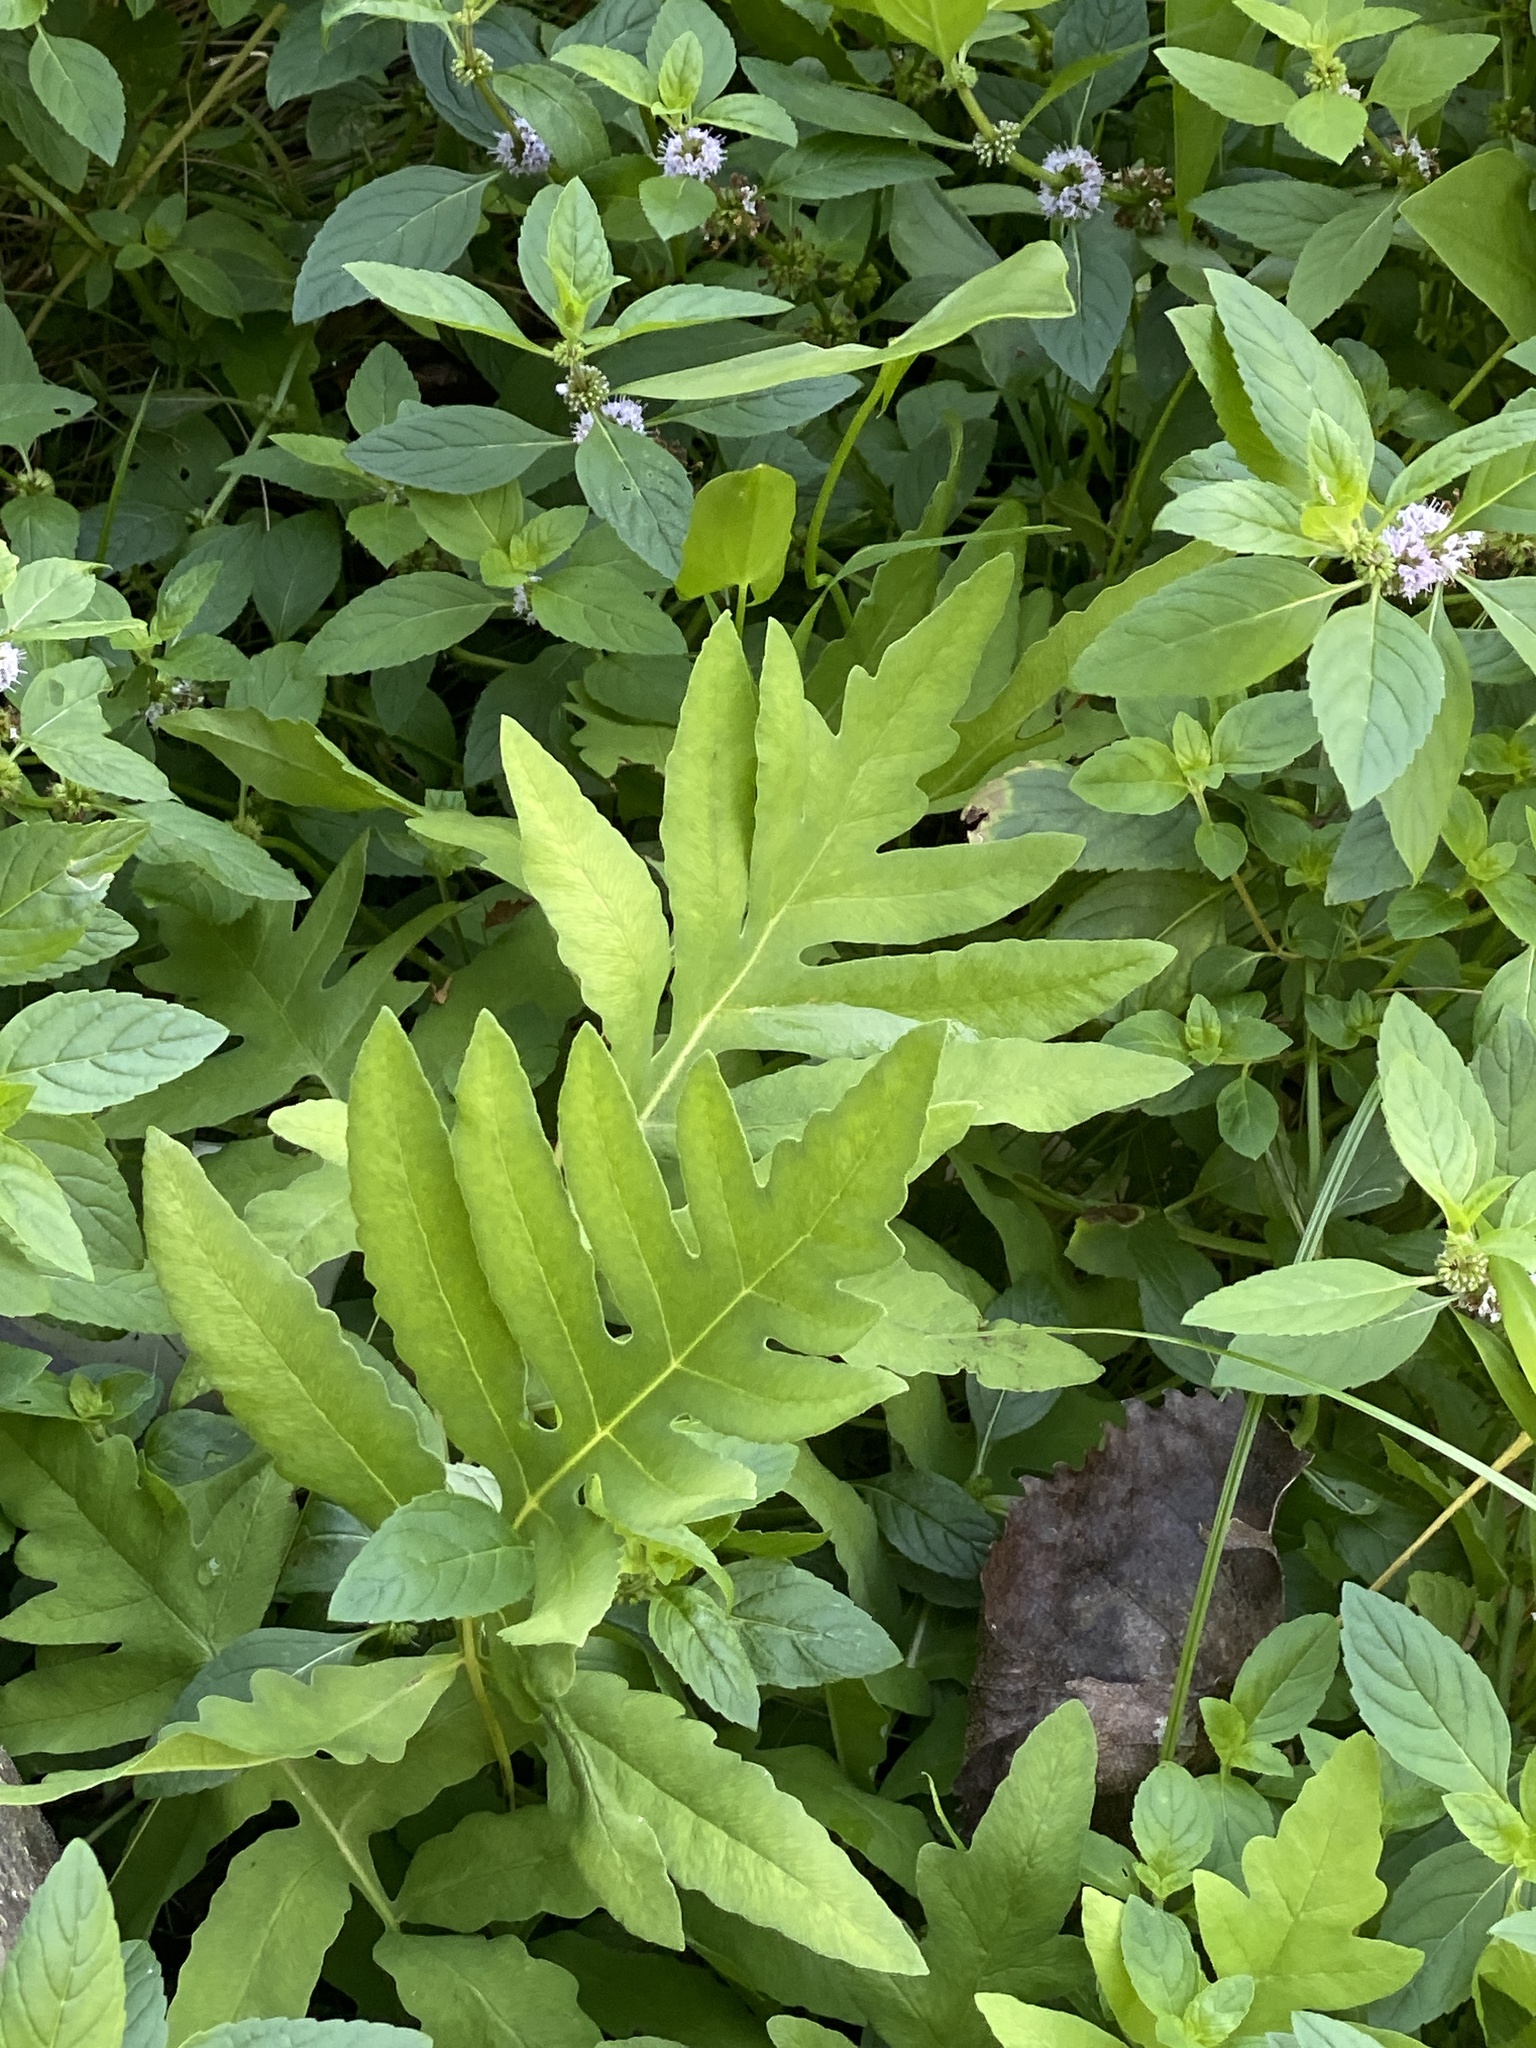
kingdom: Plantae
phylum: Tracheophyta
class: Polypodiopsida
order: Polypodiales
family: Onocleaceae
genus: Onoclea
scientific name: Onoclea sensibilis
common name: Sensitive fern
